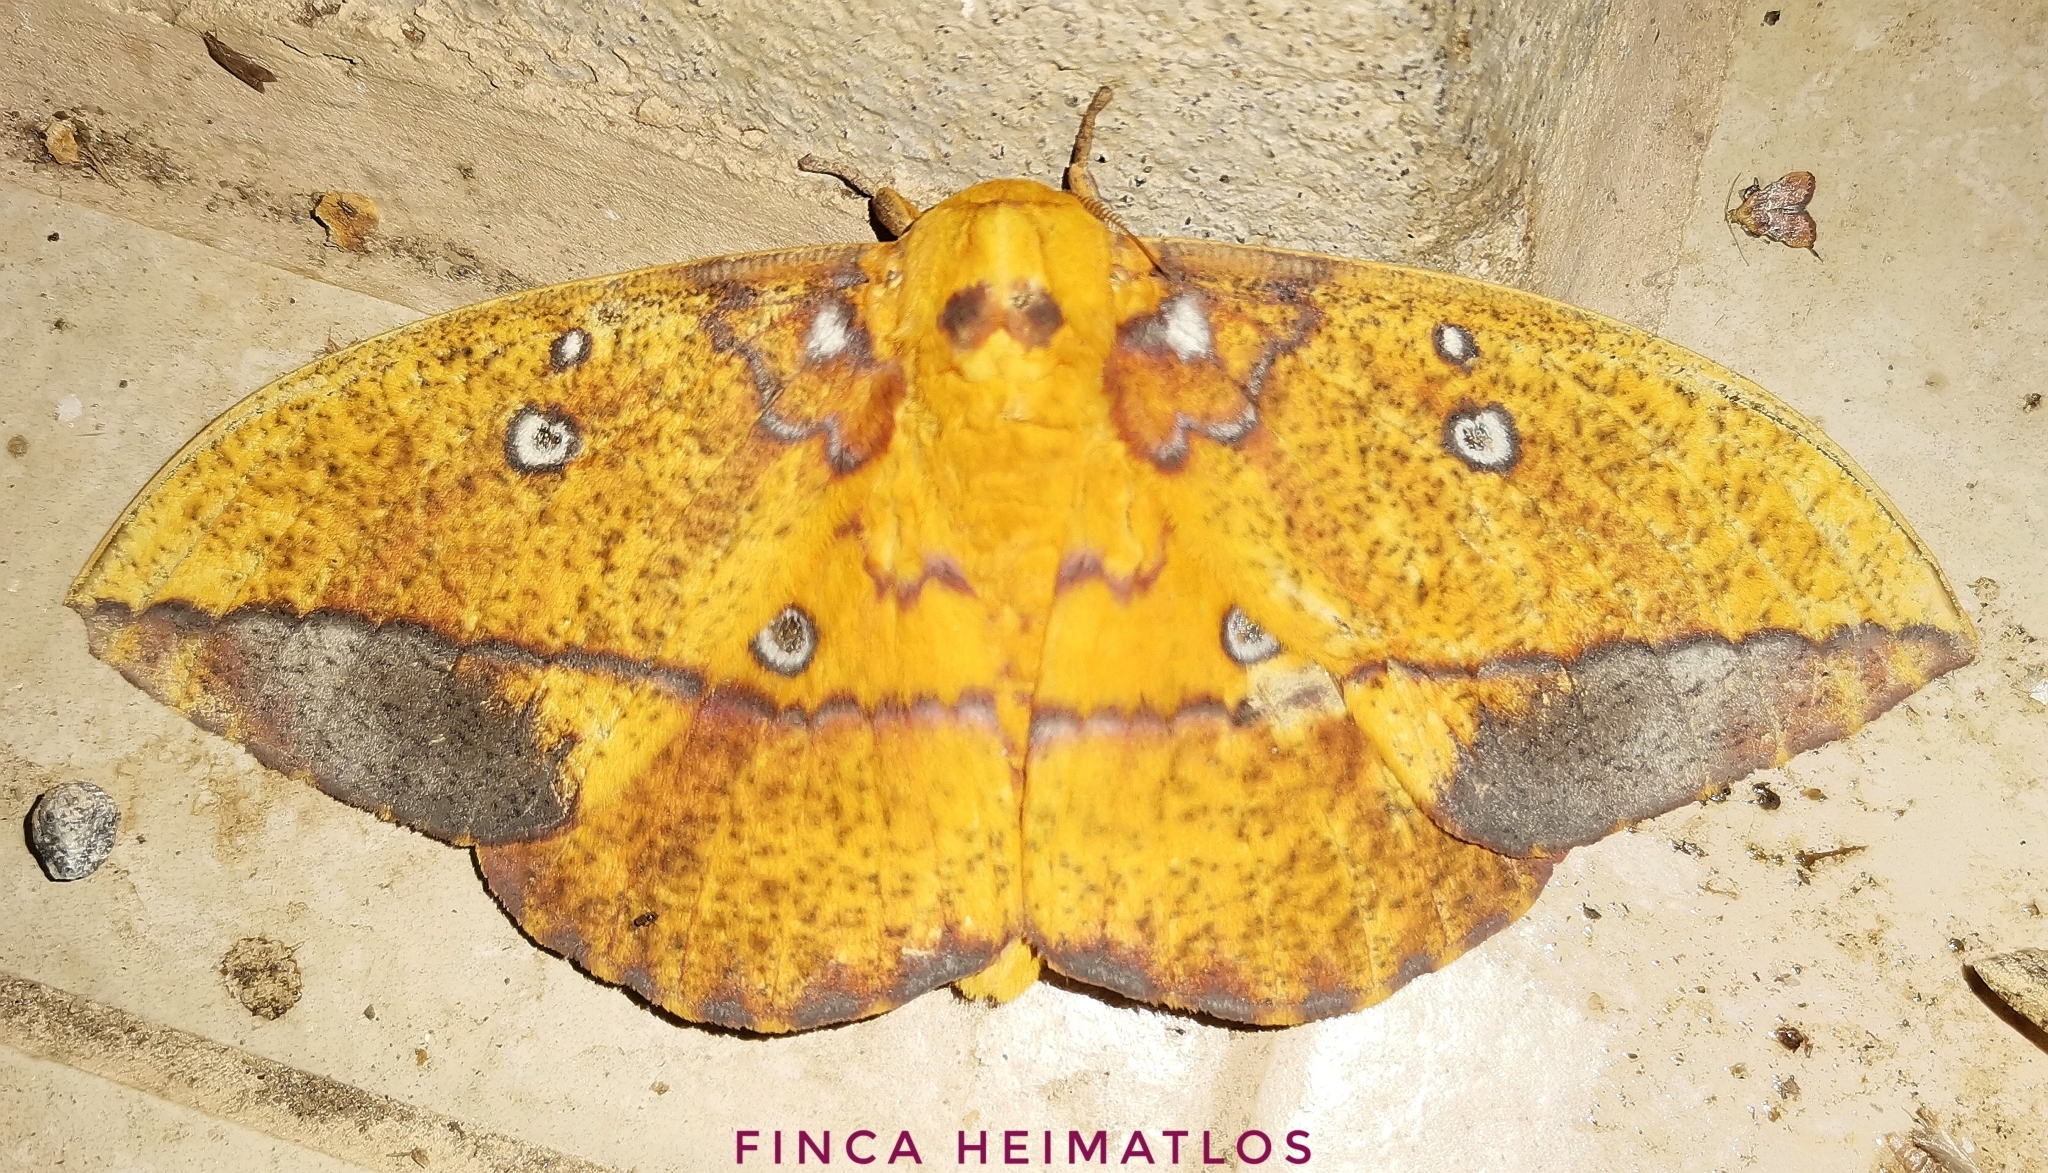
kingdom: Animalia
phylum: Arthropoda
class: Insecta
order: Lepidoptera
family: Saturniidae
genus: Eacles
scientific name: Eacles penelope
